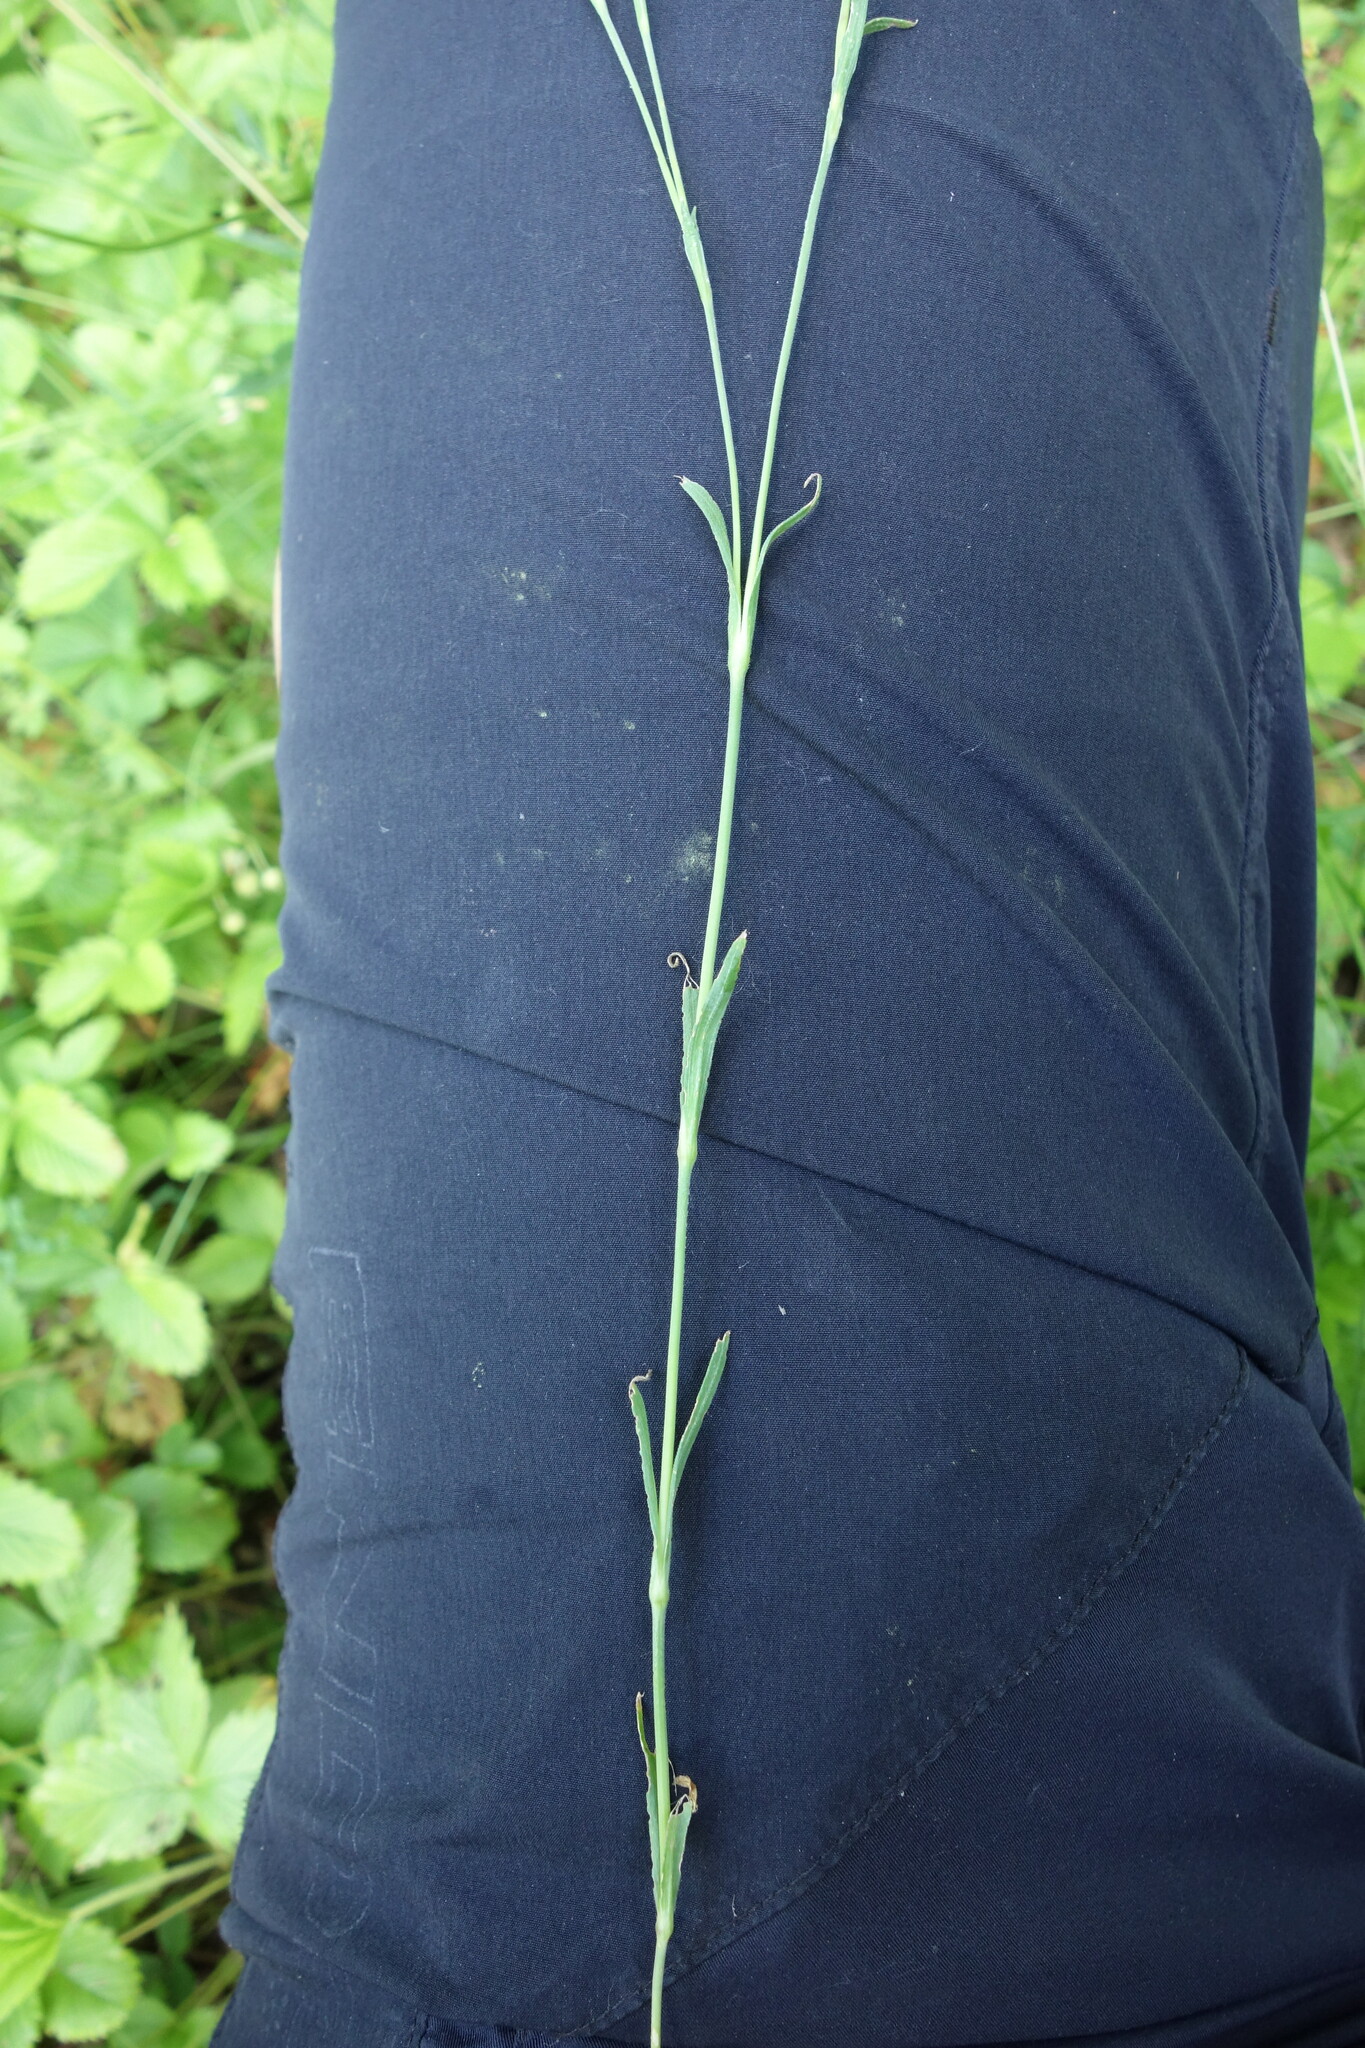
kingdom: Plantae
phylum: Tracheophyta
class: Magnoliopsida
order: Caryophyllales
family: Caryophyllaceae
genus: Dianthus
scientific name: Dianthus deltoides
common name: Maiden pink
